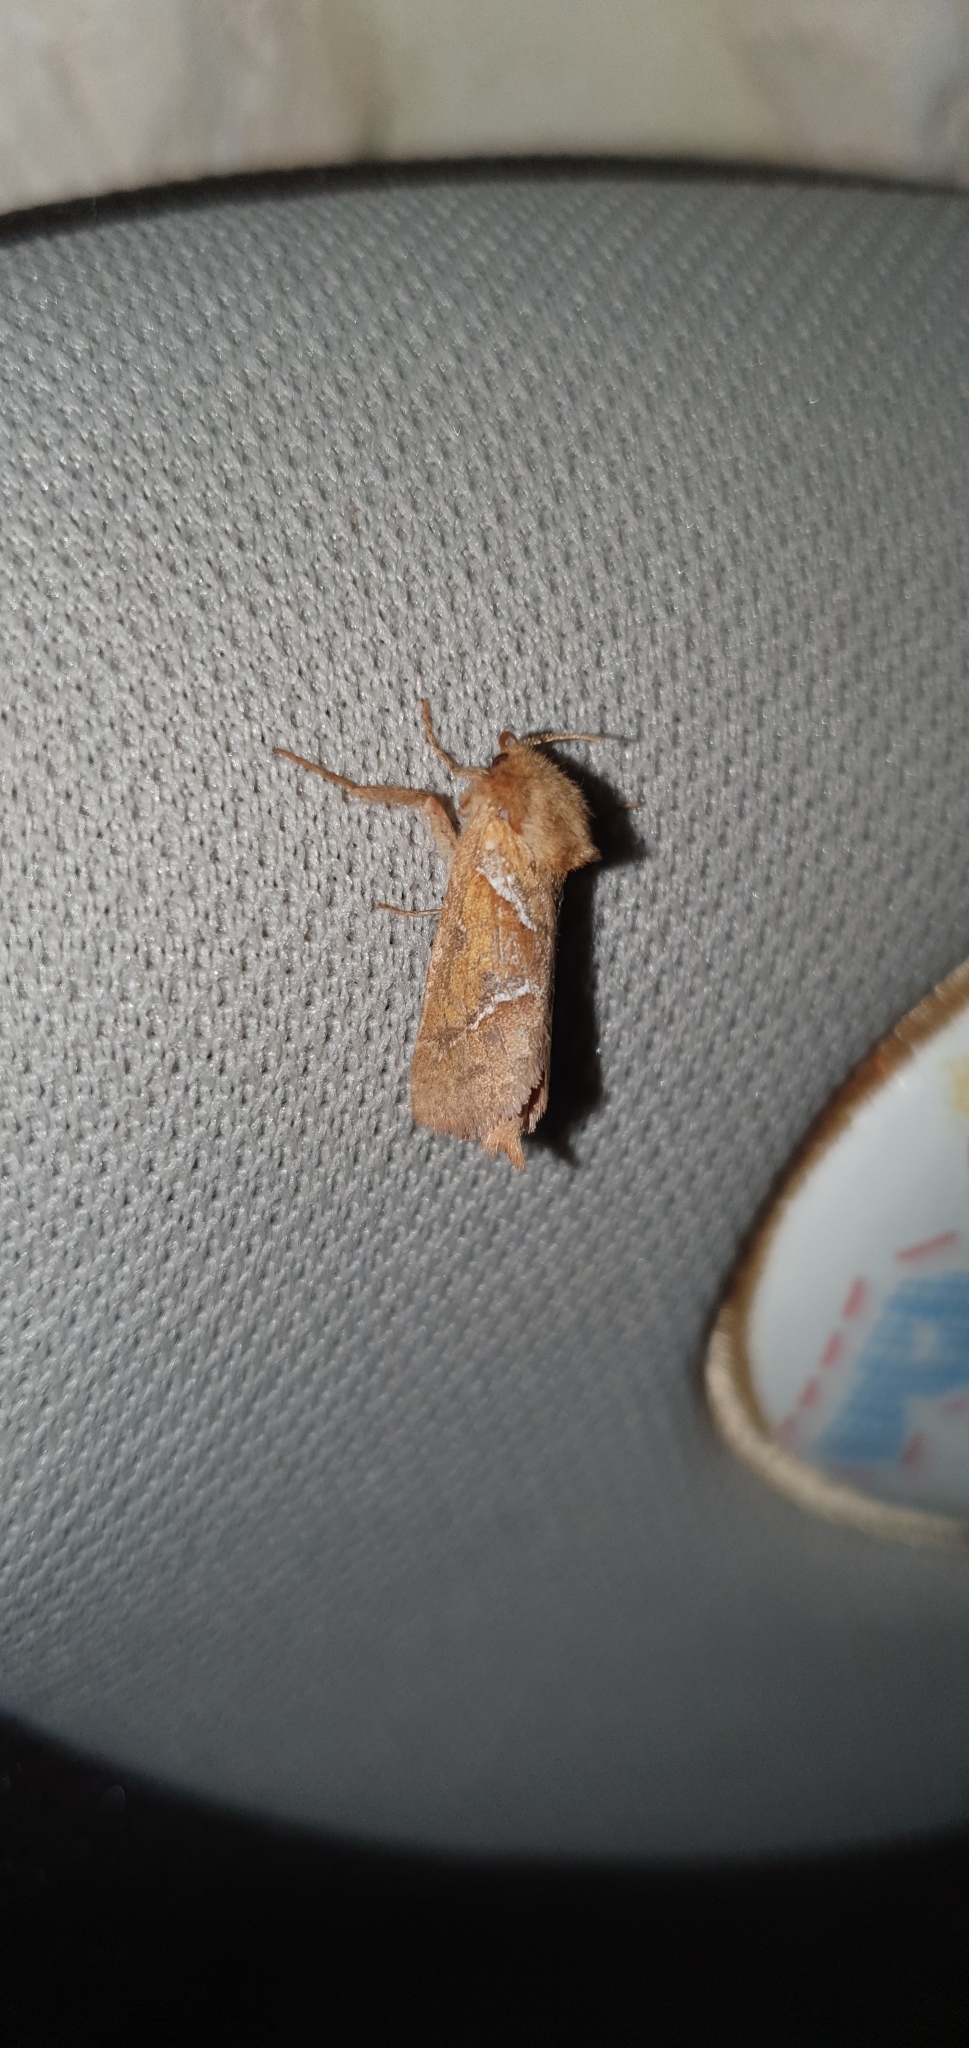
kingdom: Animalia
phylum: Arthropoda
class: Insecta
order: Lepidoptera
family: Hepialidae
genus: Triodia
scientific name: Triodia sylvina
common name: Orange swift
